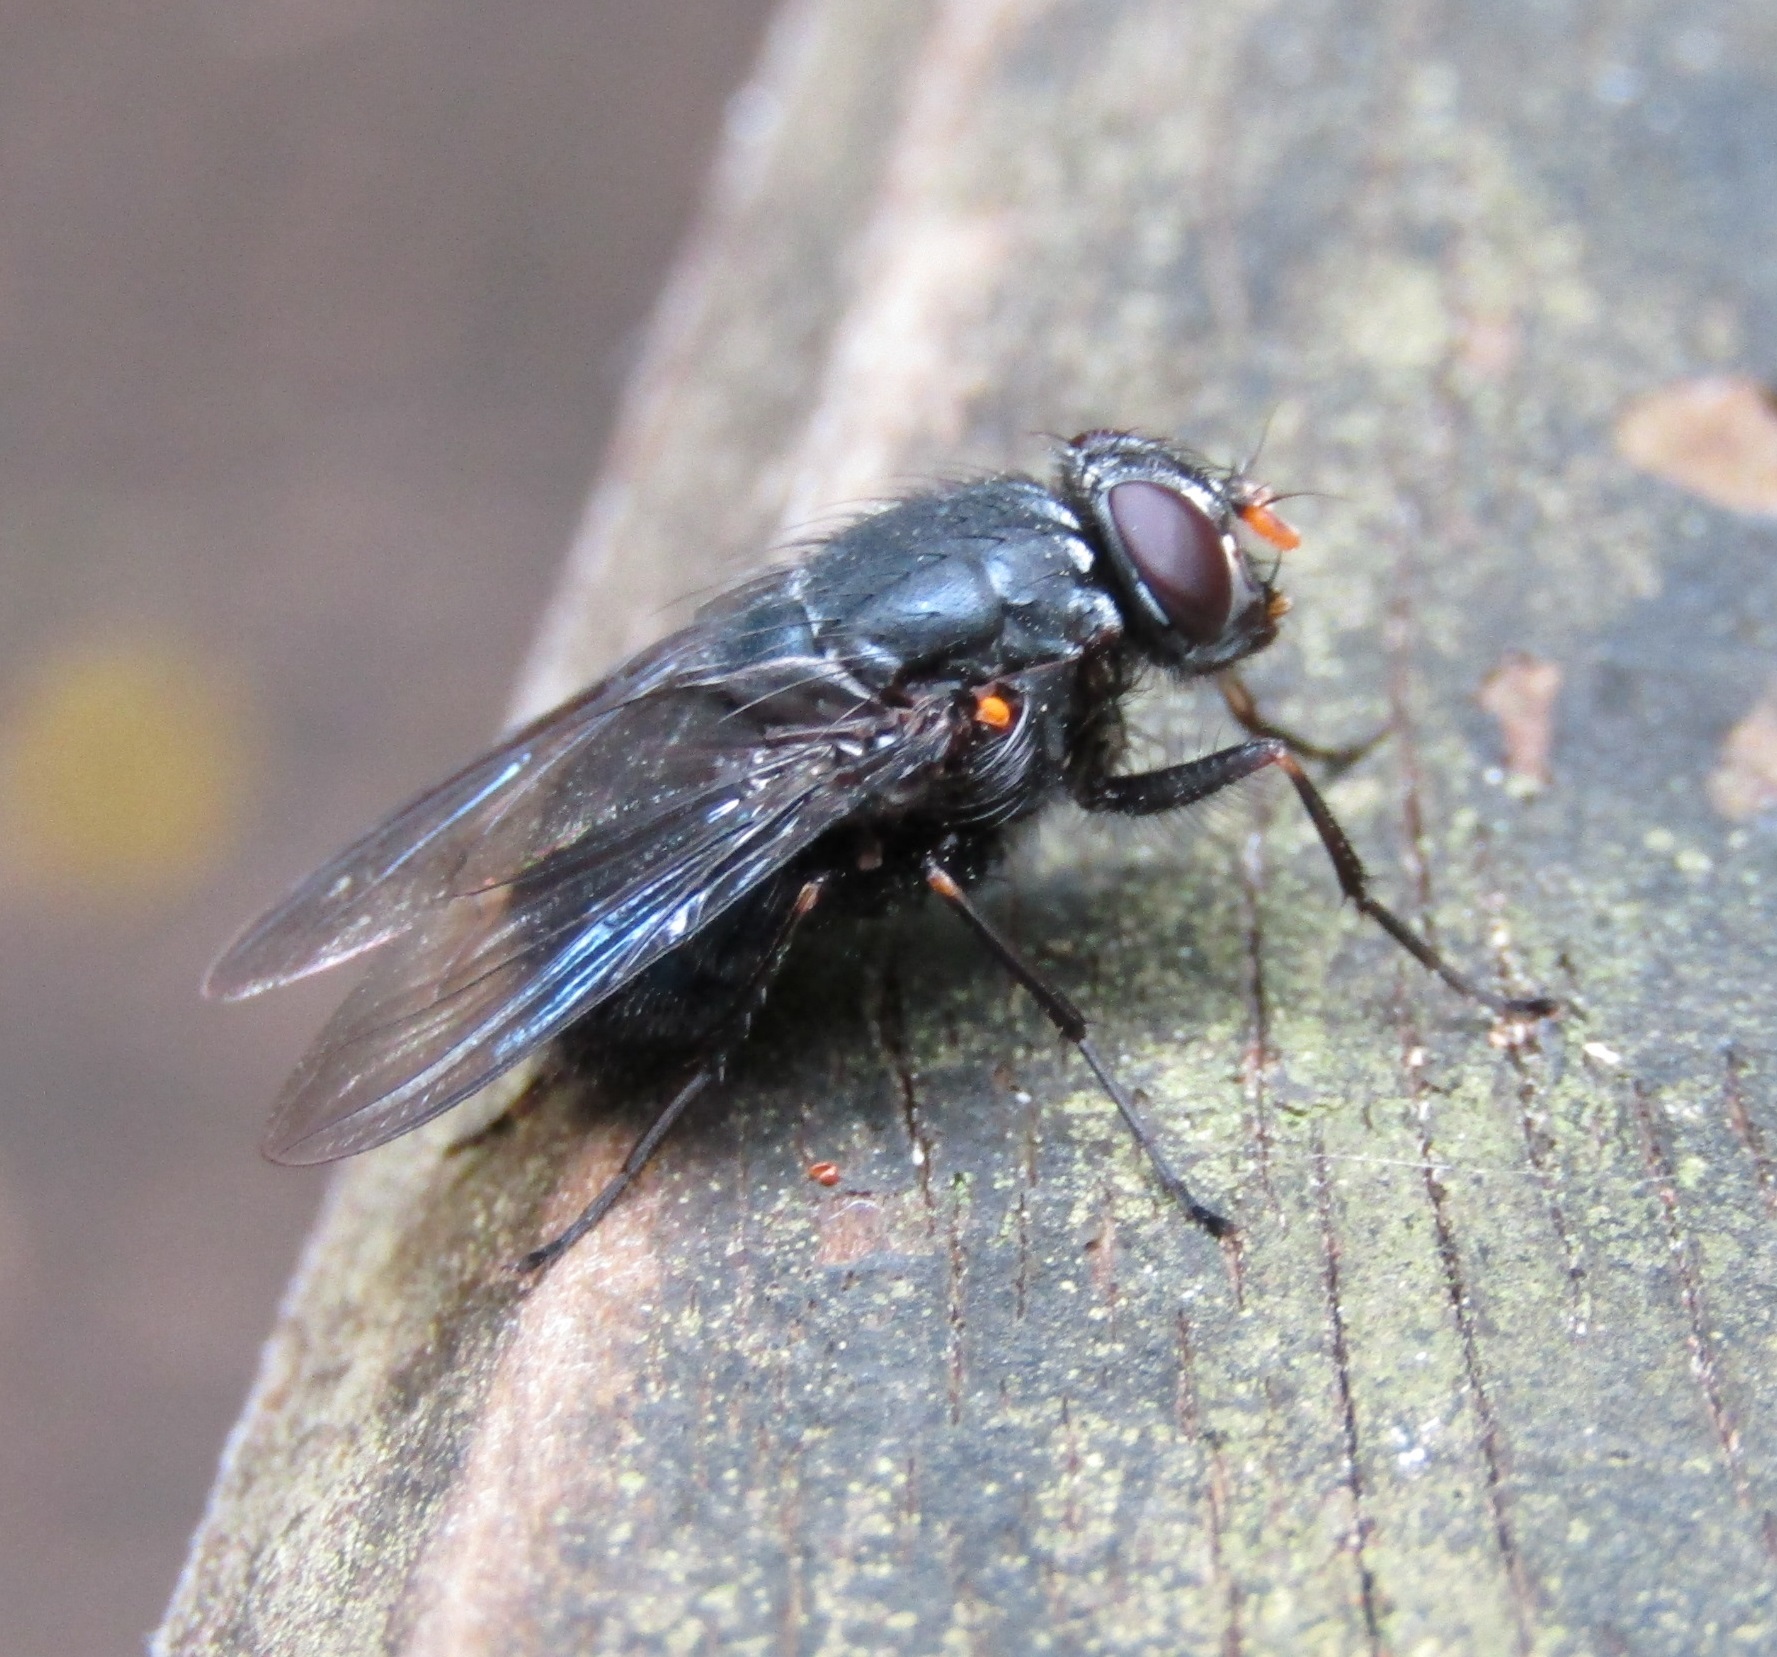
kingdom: Animalia
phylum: Arthropoda
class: Insecta
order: Diptera
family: Muscidae
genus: Calliphoroides
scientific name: Calliphoroides antennatis
